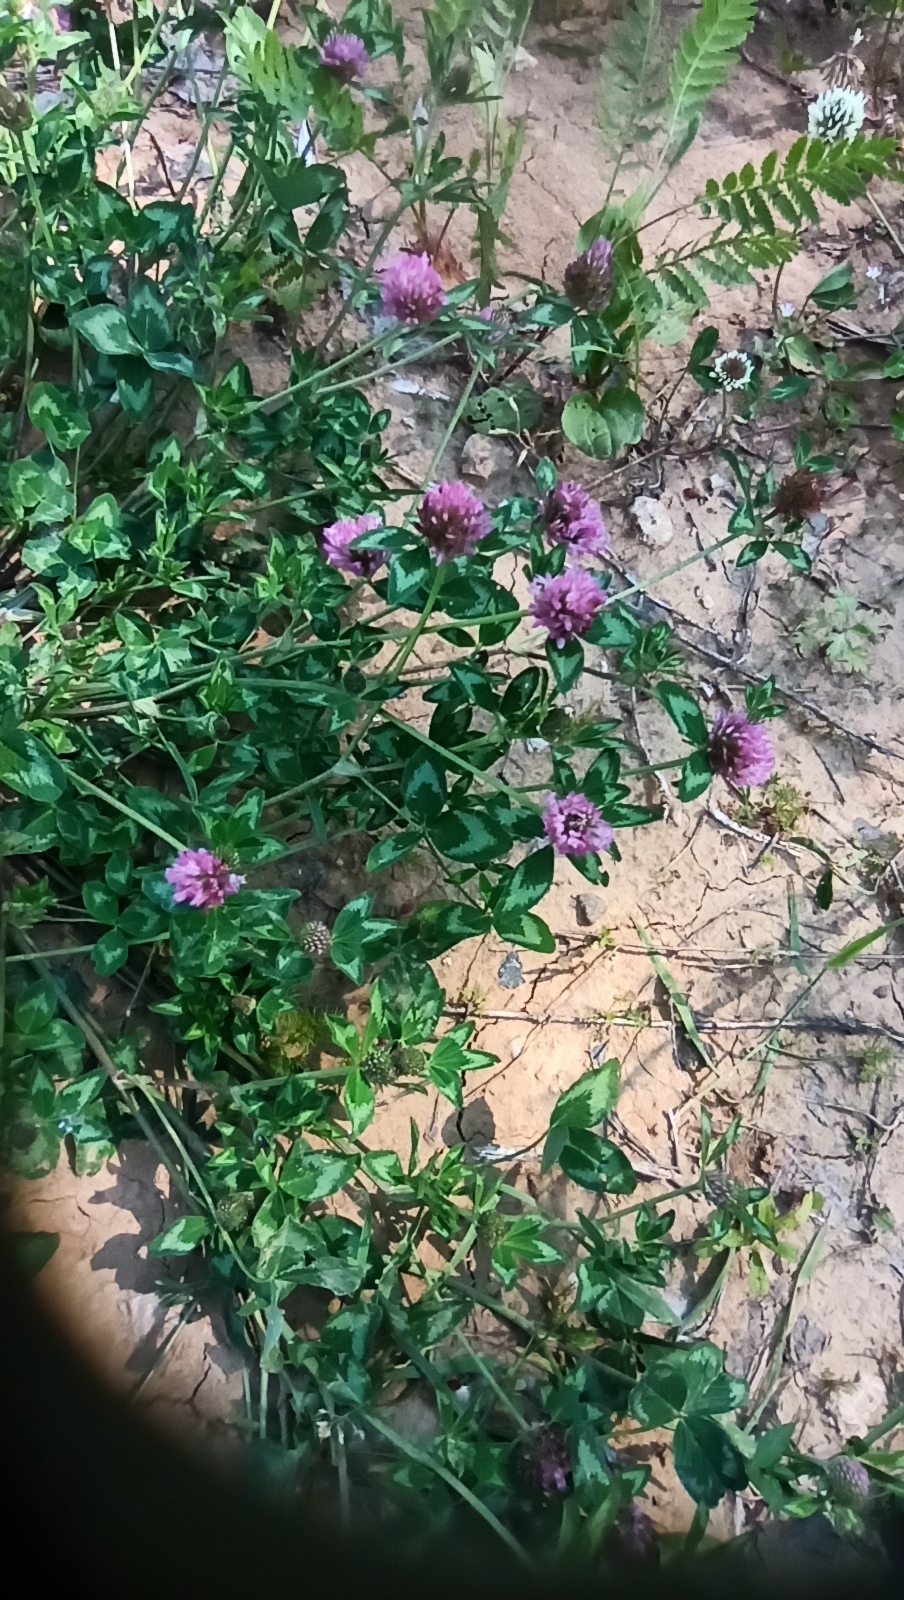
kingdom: Plantae
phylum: Tracheophyta
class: Magnoliopsida
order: Fabales
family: Fabaceae
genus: Trifolium
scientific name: Trifolium pratense
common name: Red clover
